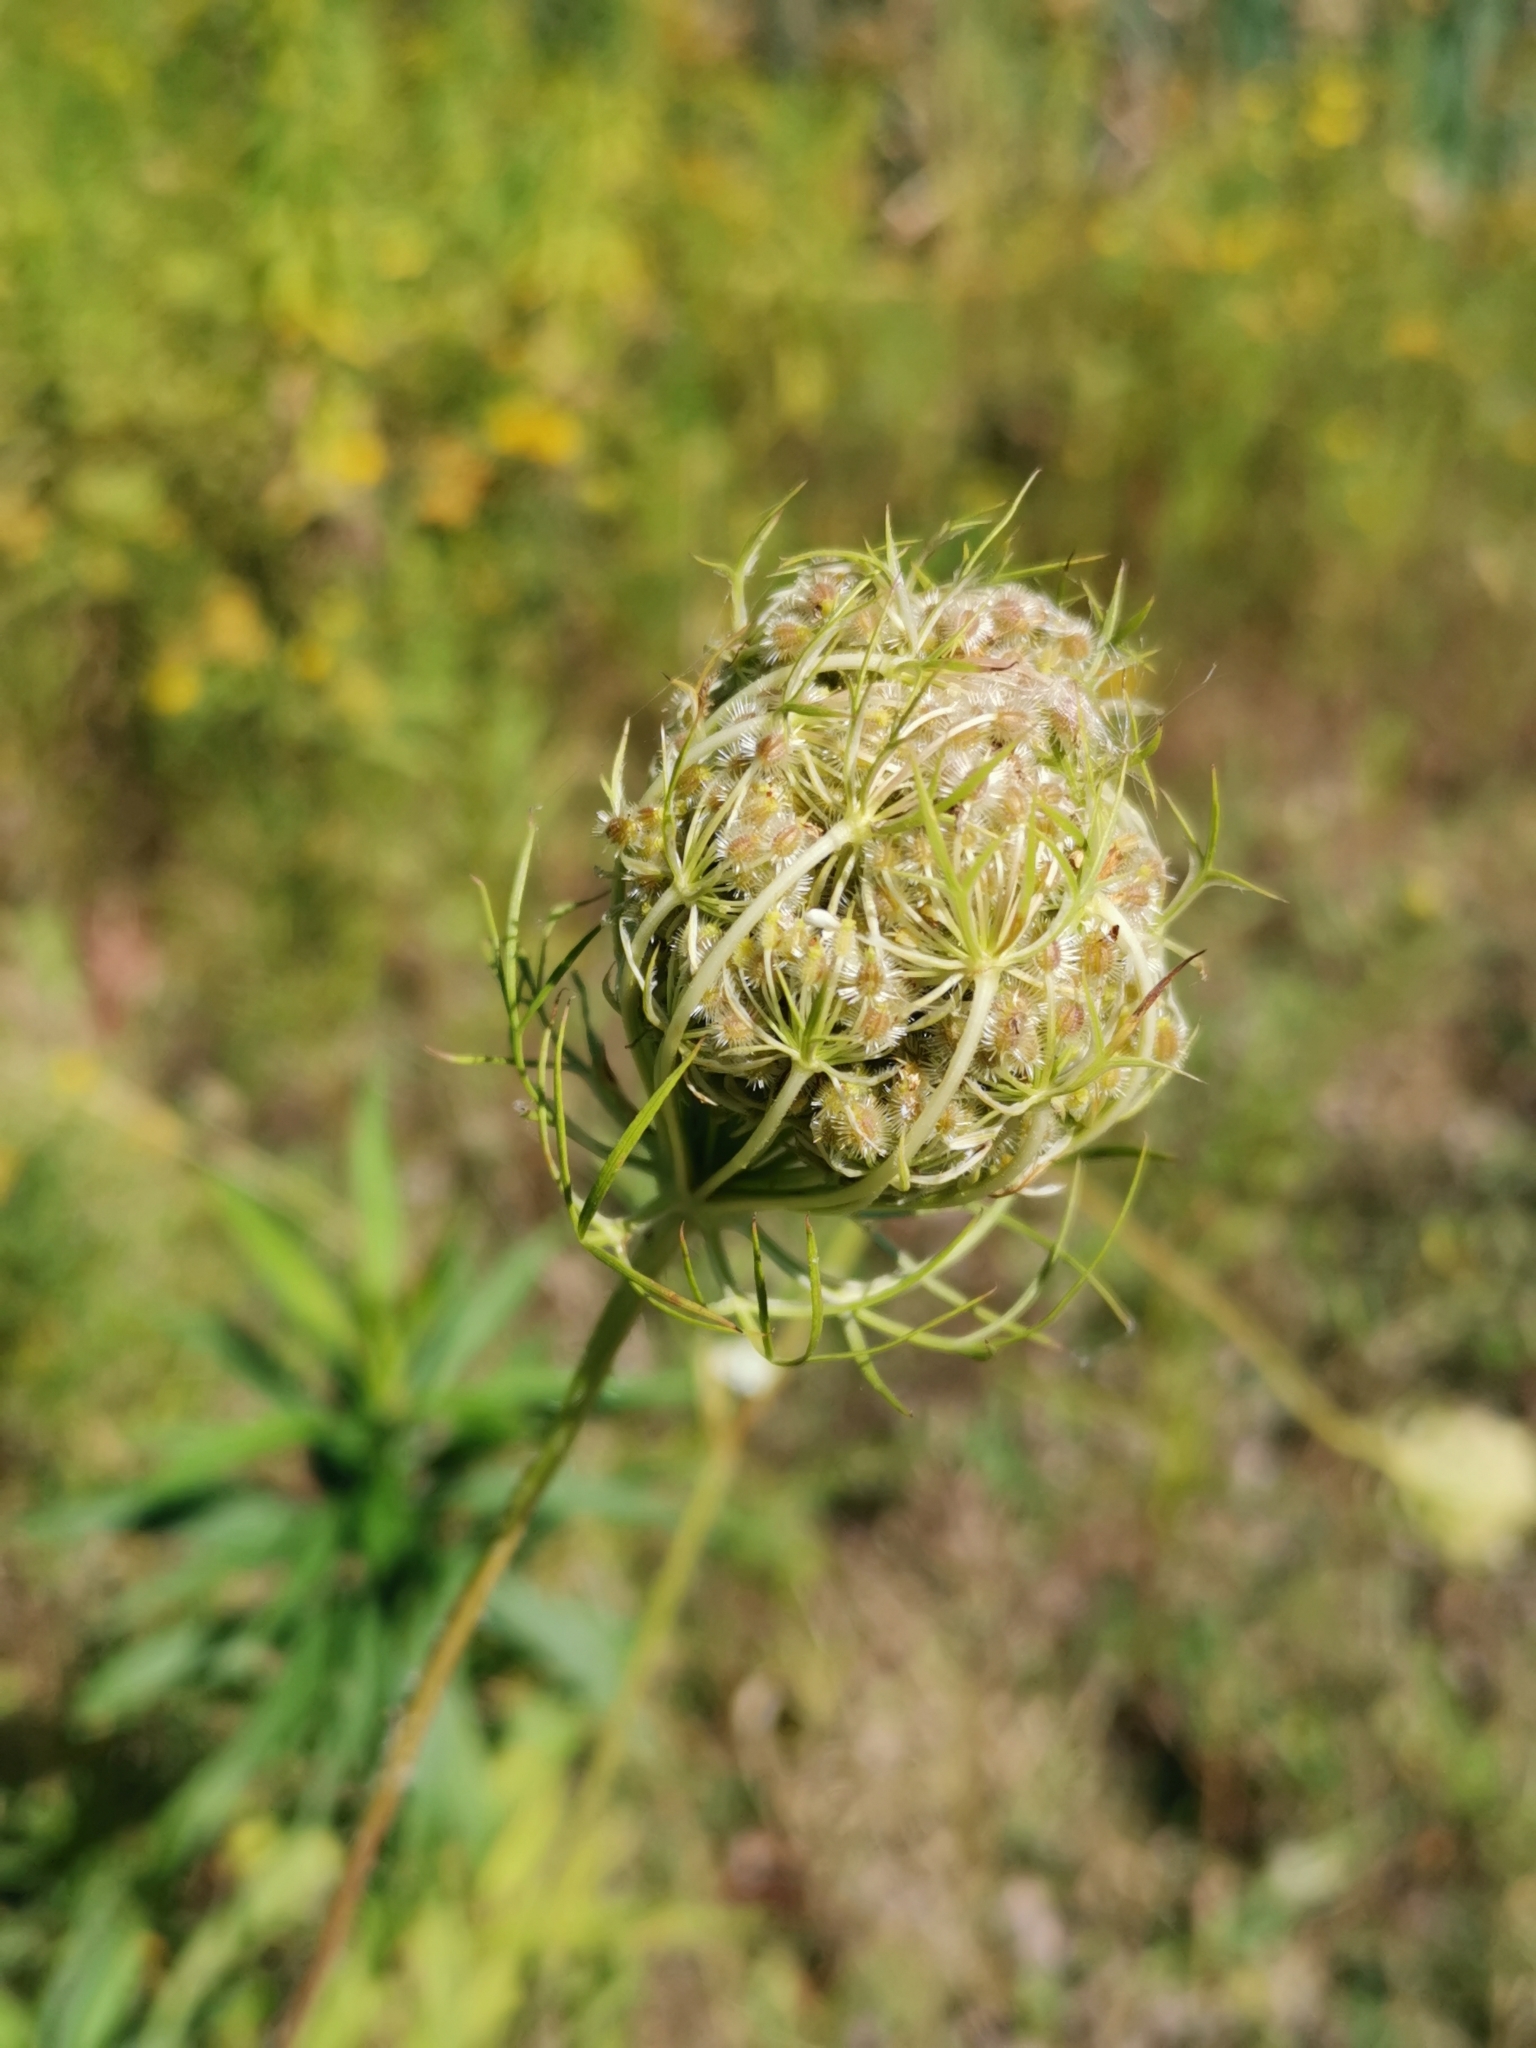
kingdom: Plantae
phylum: Tracheophyta
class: Magnoliopsida
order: Apiales
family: Apiaceae
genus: Daucus
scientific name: Daucus carota
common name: Wild carrot
